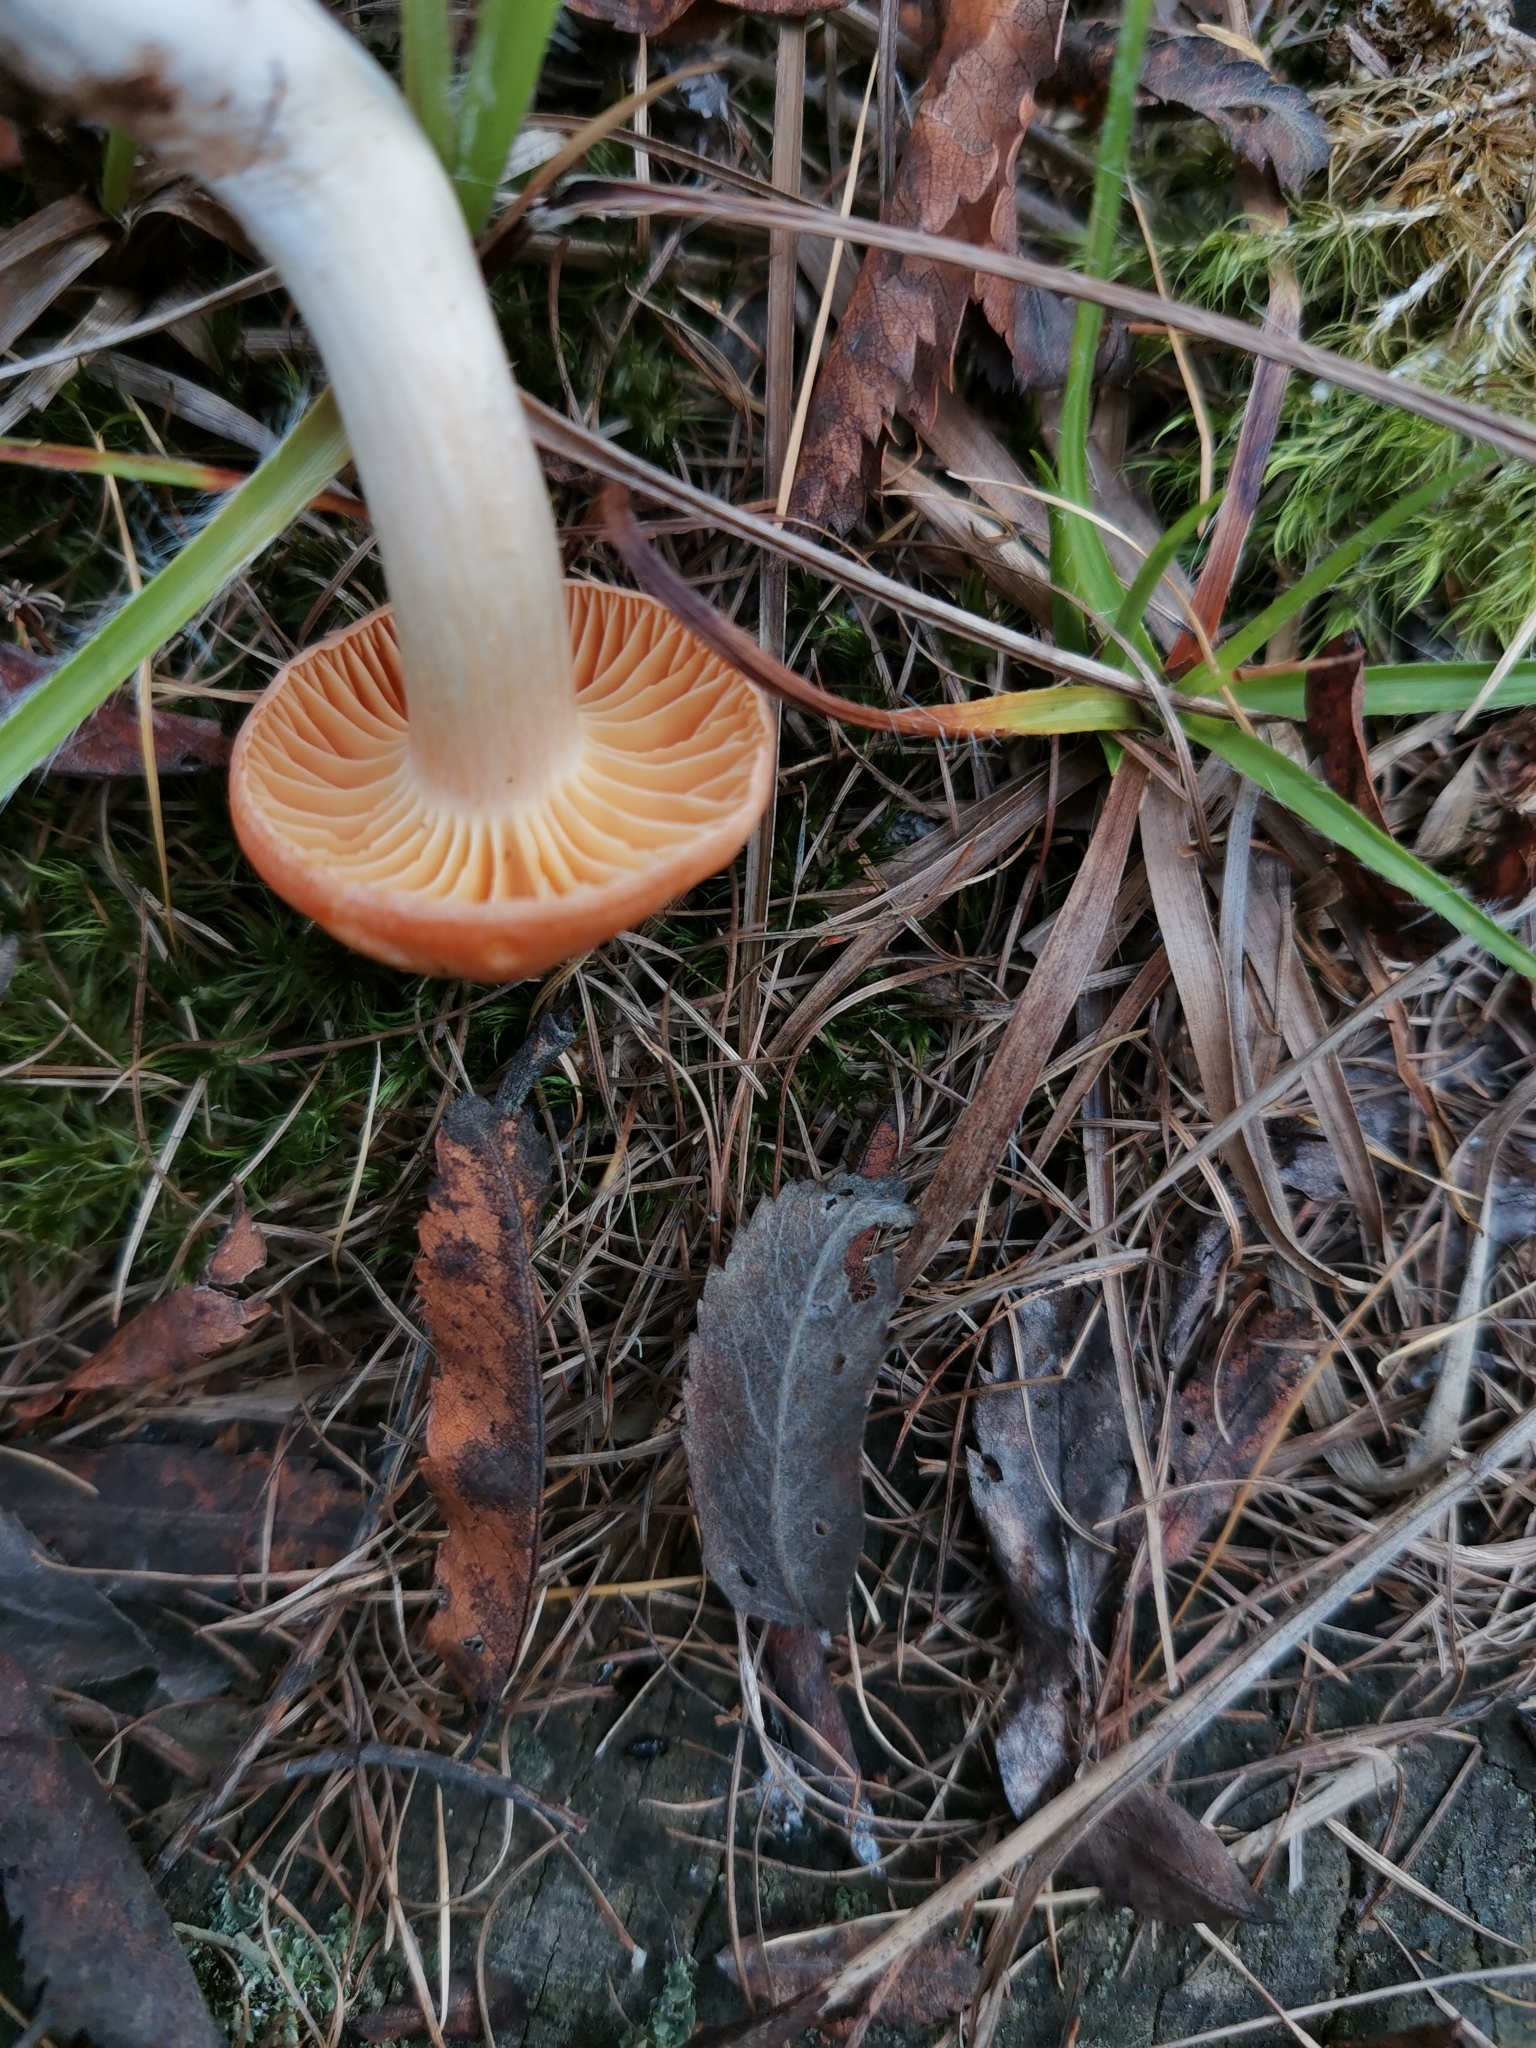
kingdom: Fungi
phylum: Basidiomycota
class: Agaricomycetes
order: Agaricales
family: Hygrophoraceae
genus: Cuphophyllus
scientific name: Cuphophyllus pratensis
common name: Meadow waxcap
